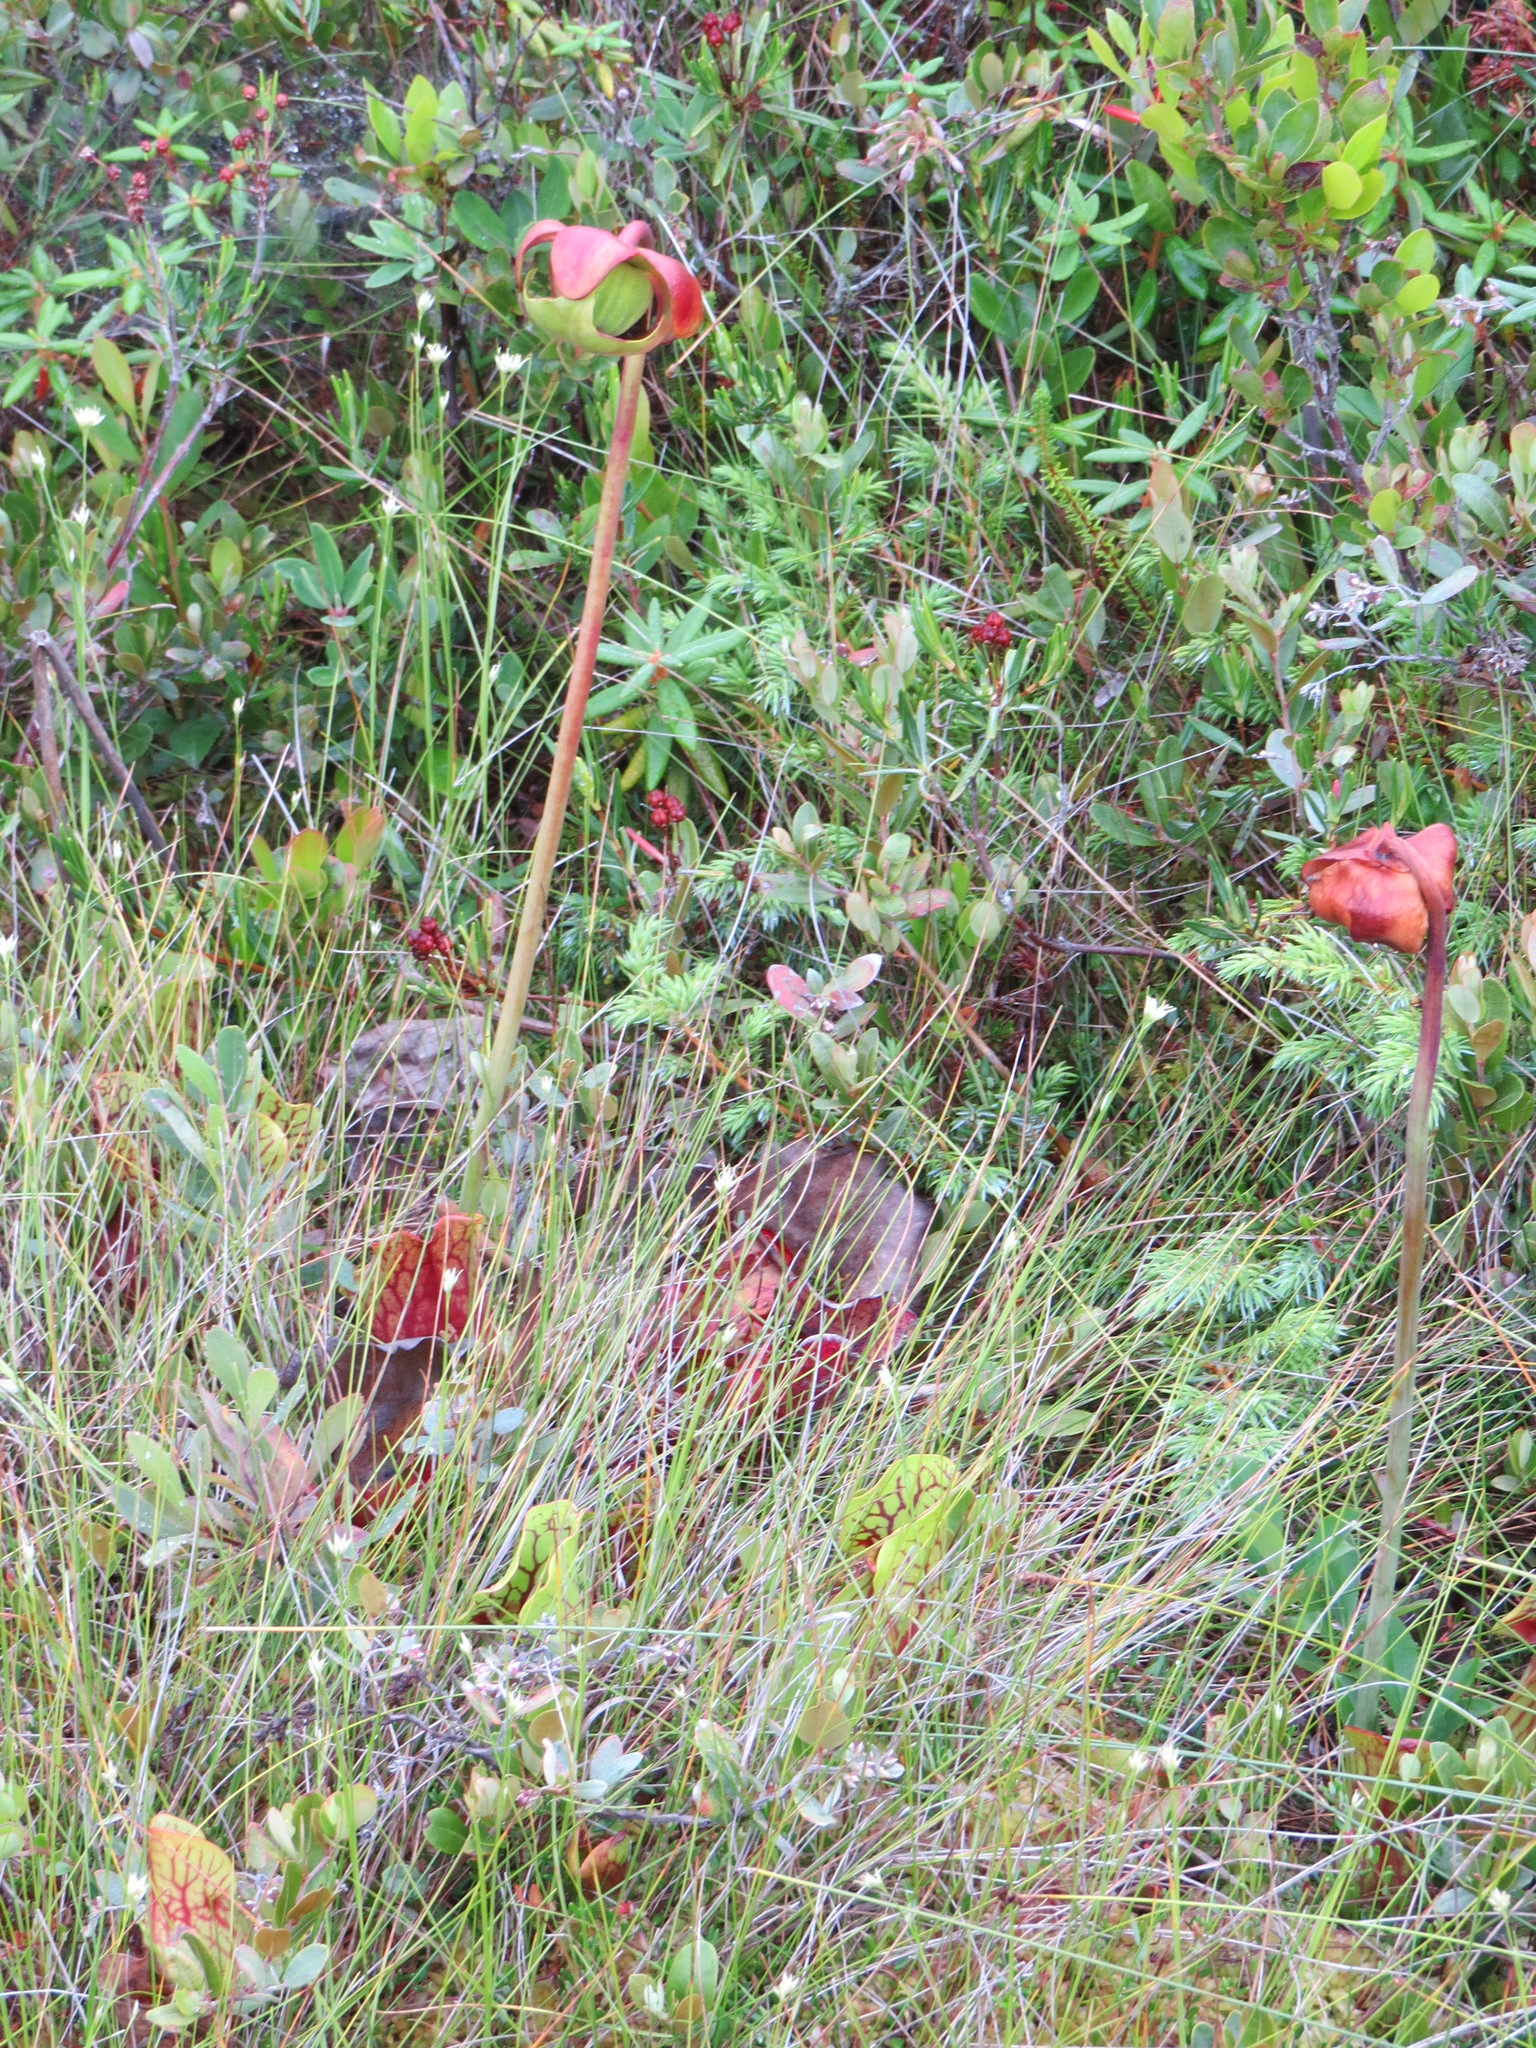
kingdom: Plantae
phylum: Tracheophyta
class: Magnoliopsida
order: Ericales
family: Sarraceniaceae
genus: Sarracenia
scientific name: Sarracenia purpurea
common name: Pitcherplant
